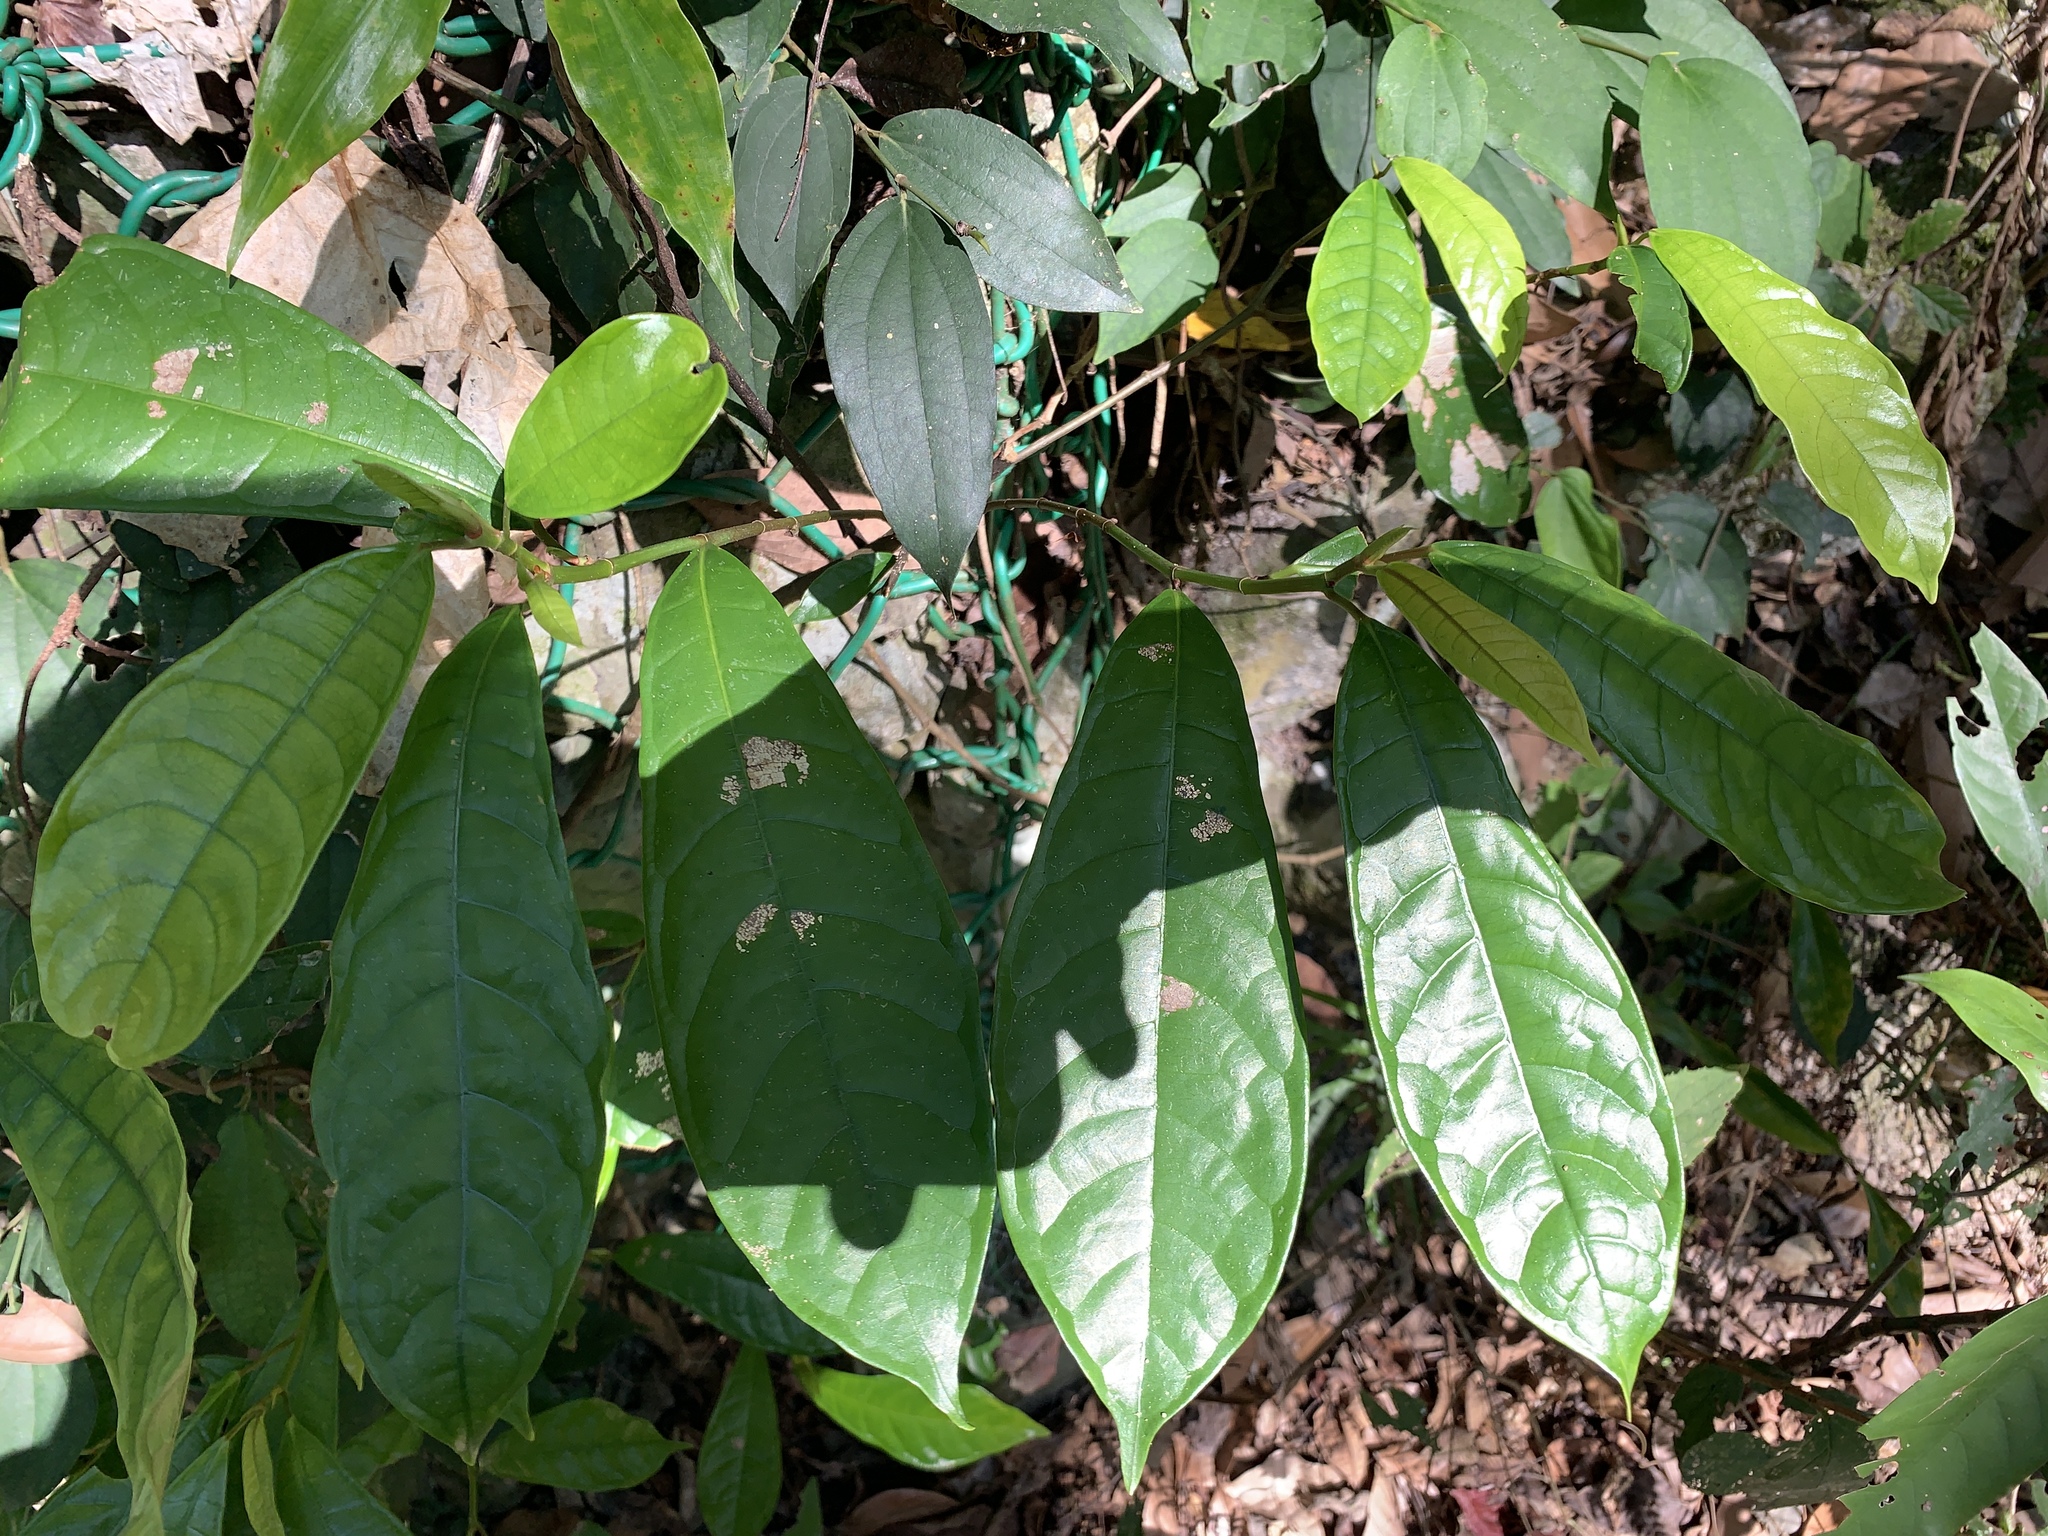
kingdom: Plantae
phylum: Tracheophyta
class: Magnoliopsida
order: Rosales
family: Moraceae
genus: Ficus
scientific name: Ficus nervosa
